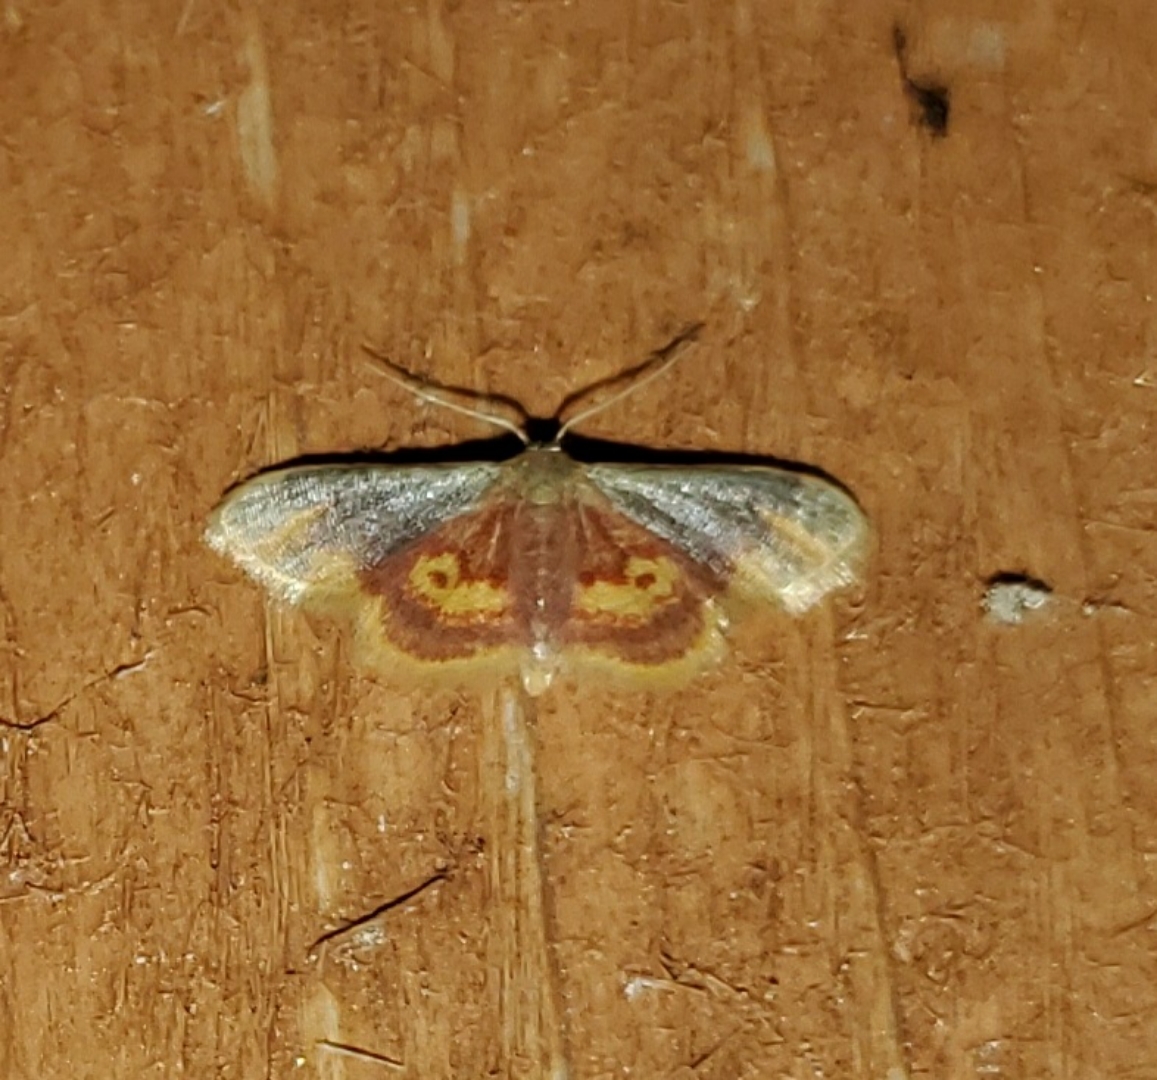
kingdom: Animalia
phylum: Arthropoda
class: Insecta
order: Lepidoptera
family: Geometridae
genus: Idaea
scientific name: Idaea scintillularia
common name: Diminutive wave
